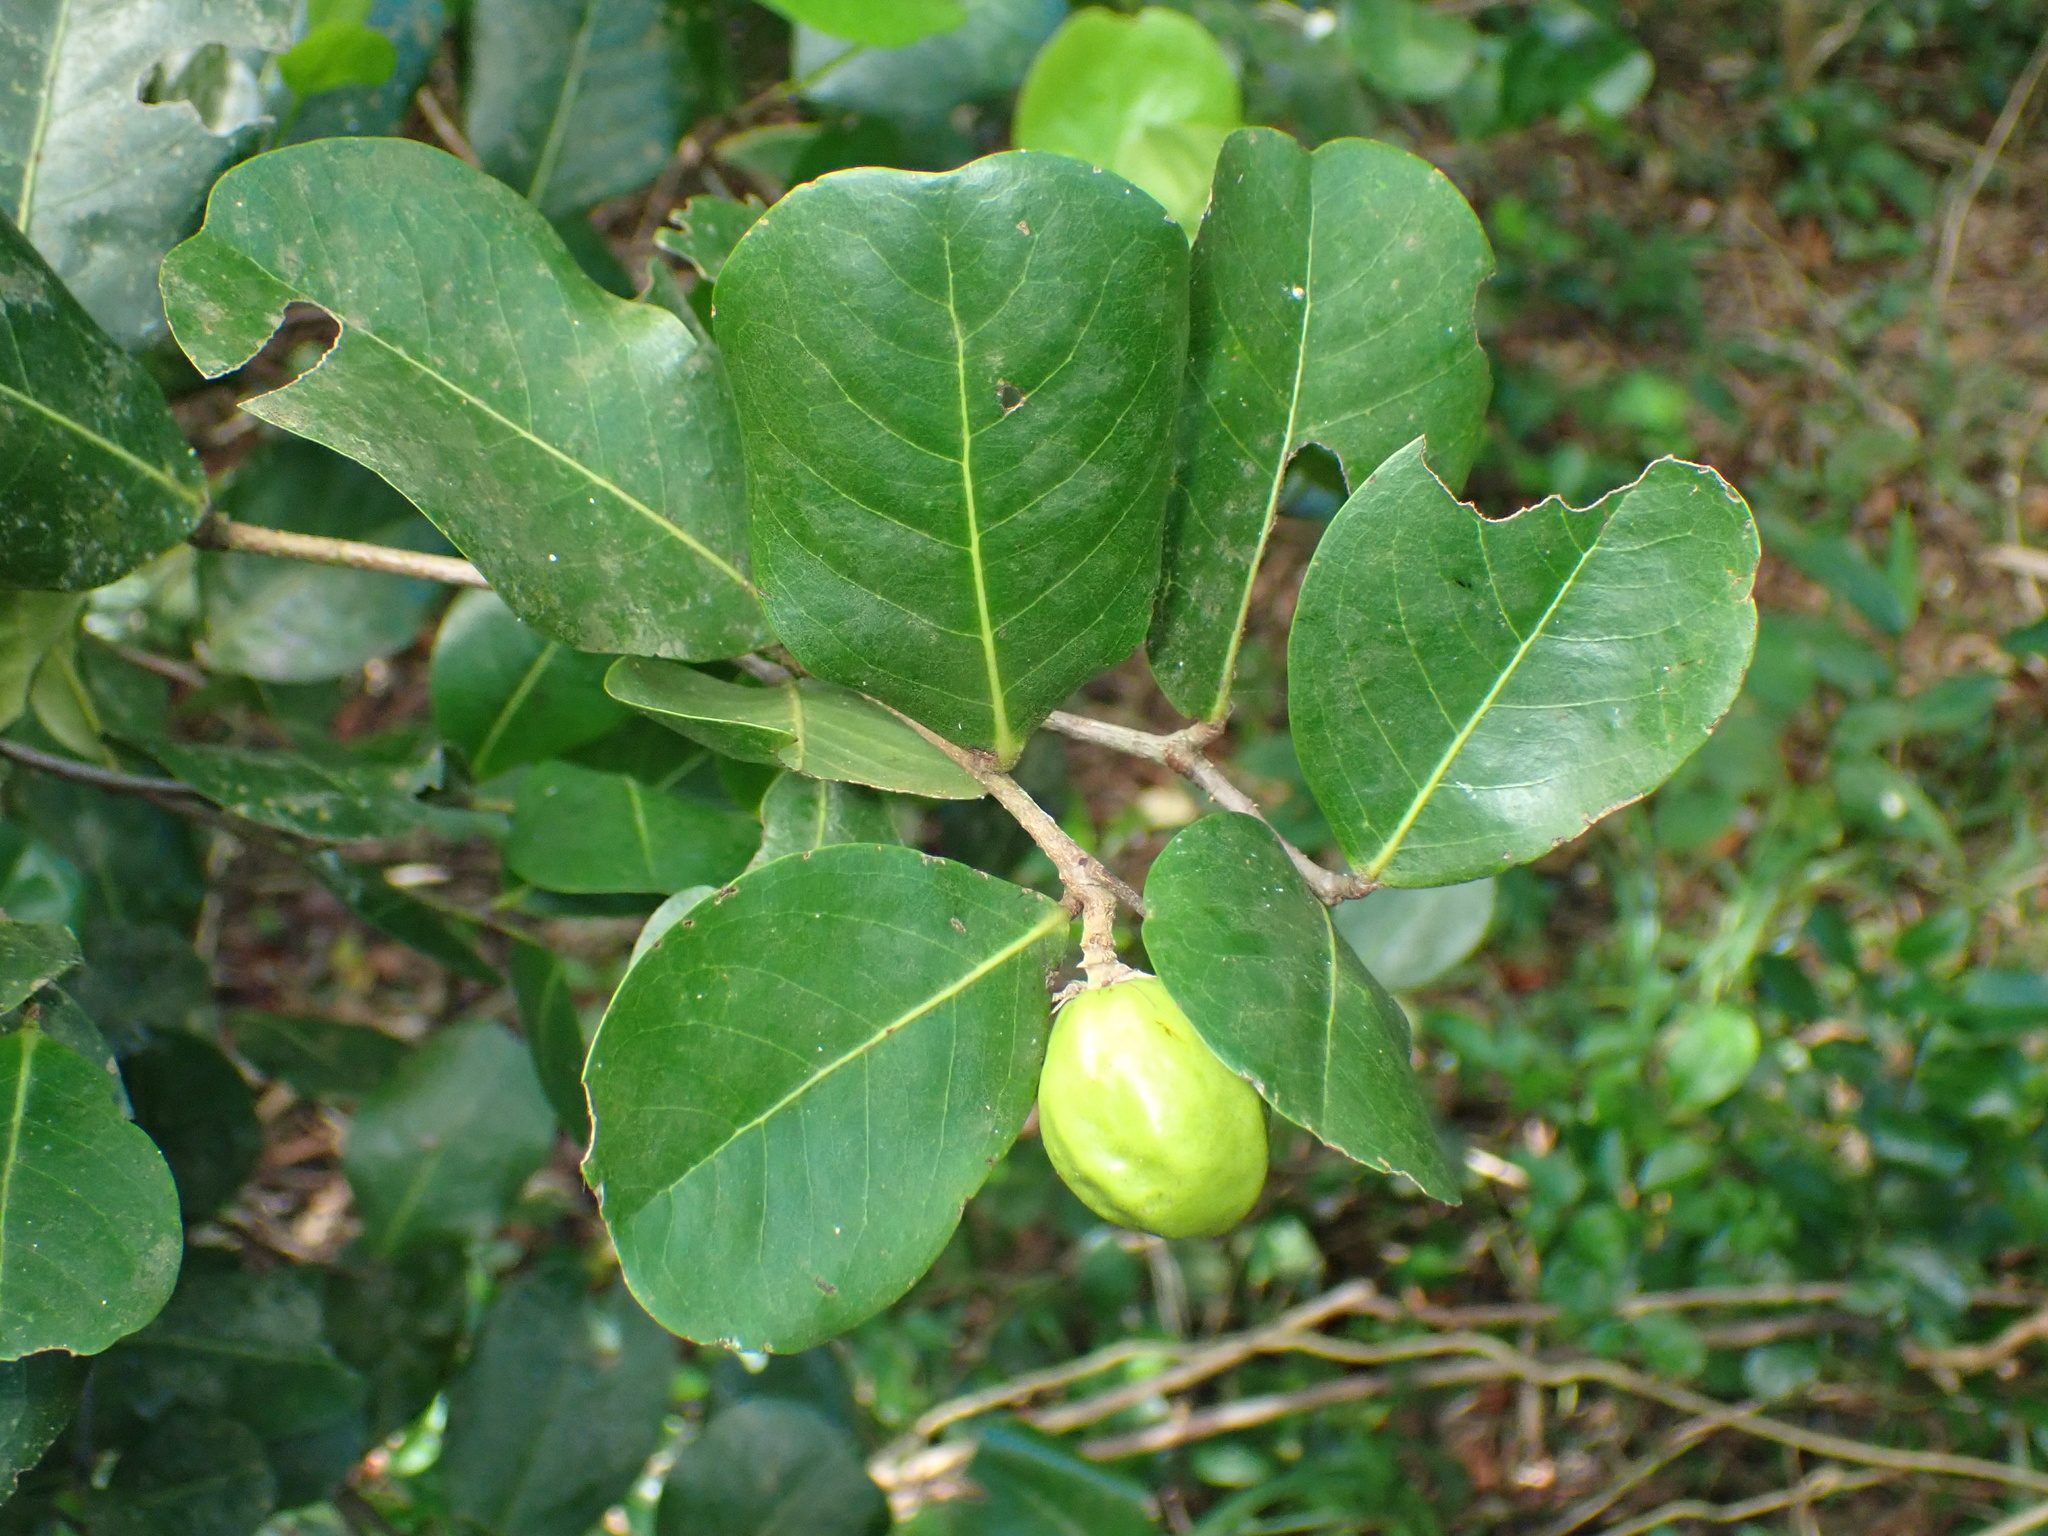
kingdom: Plantae
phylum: Tracheophyta
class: Magnoliopsida
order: Malpighiales
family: Chrysobalanaceae
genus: Chrysobalanus
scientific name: Chrysobalanus icaco
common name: Coco plum
